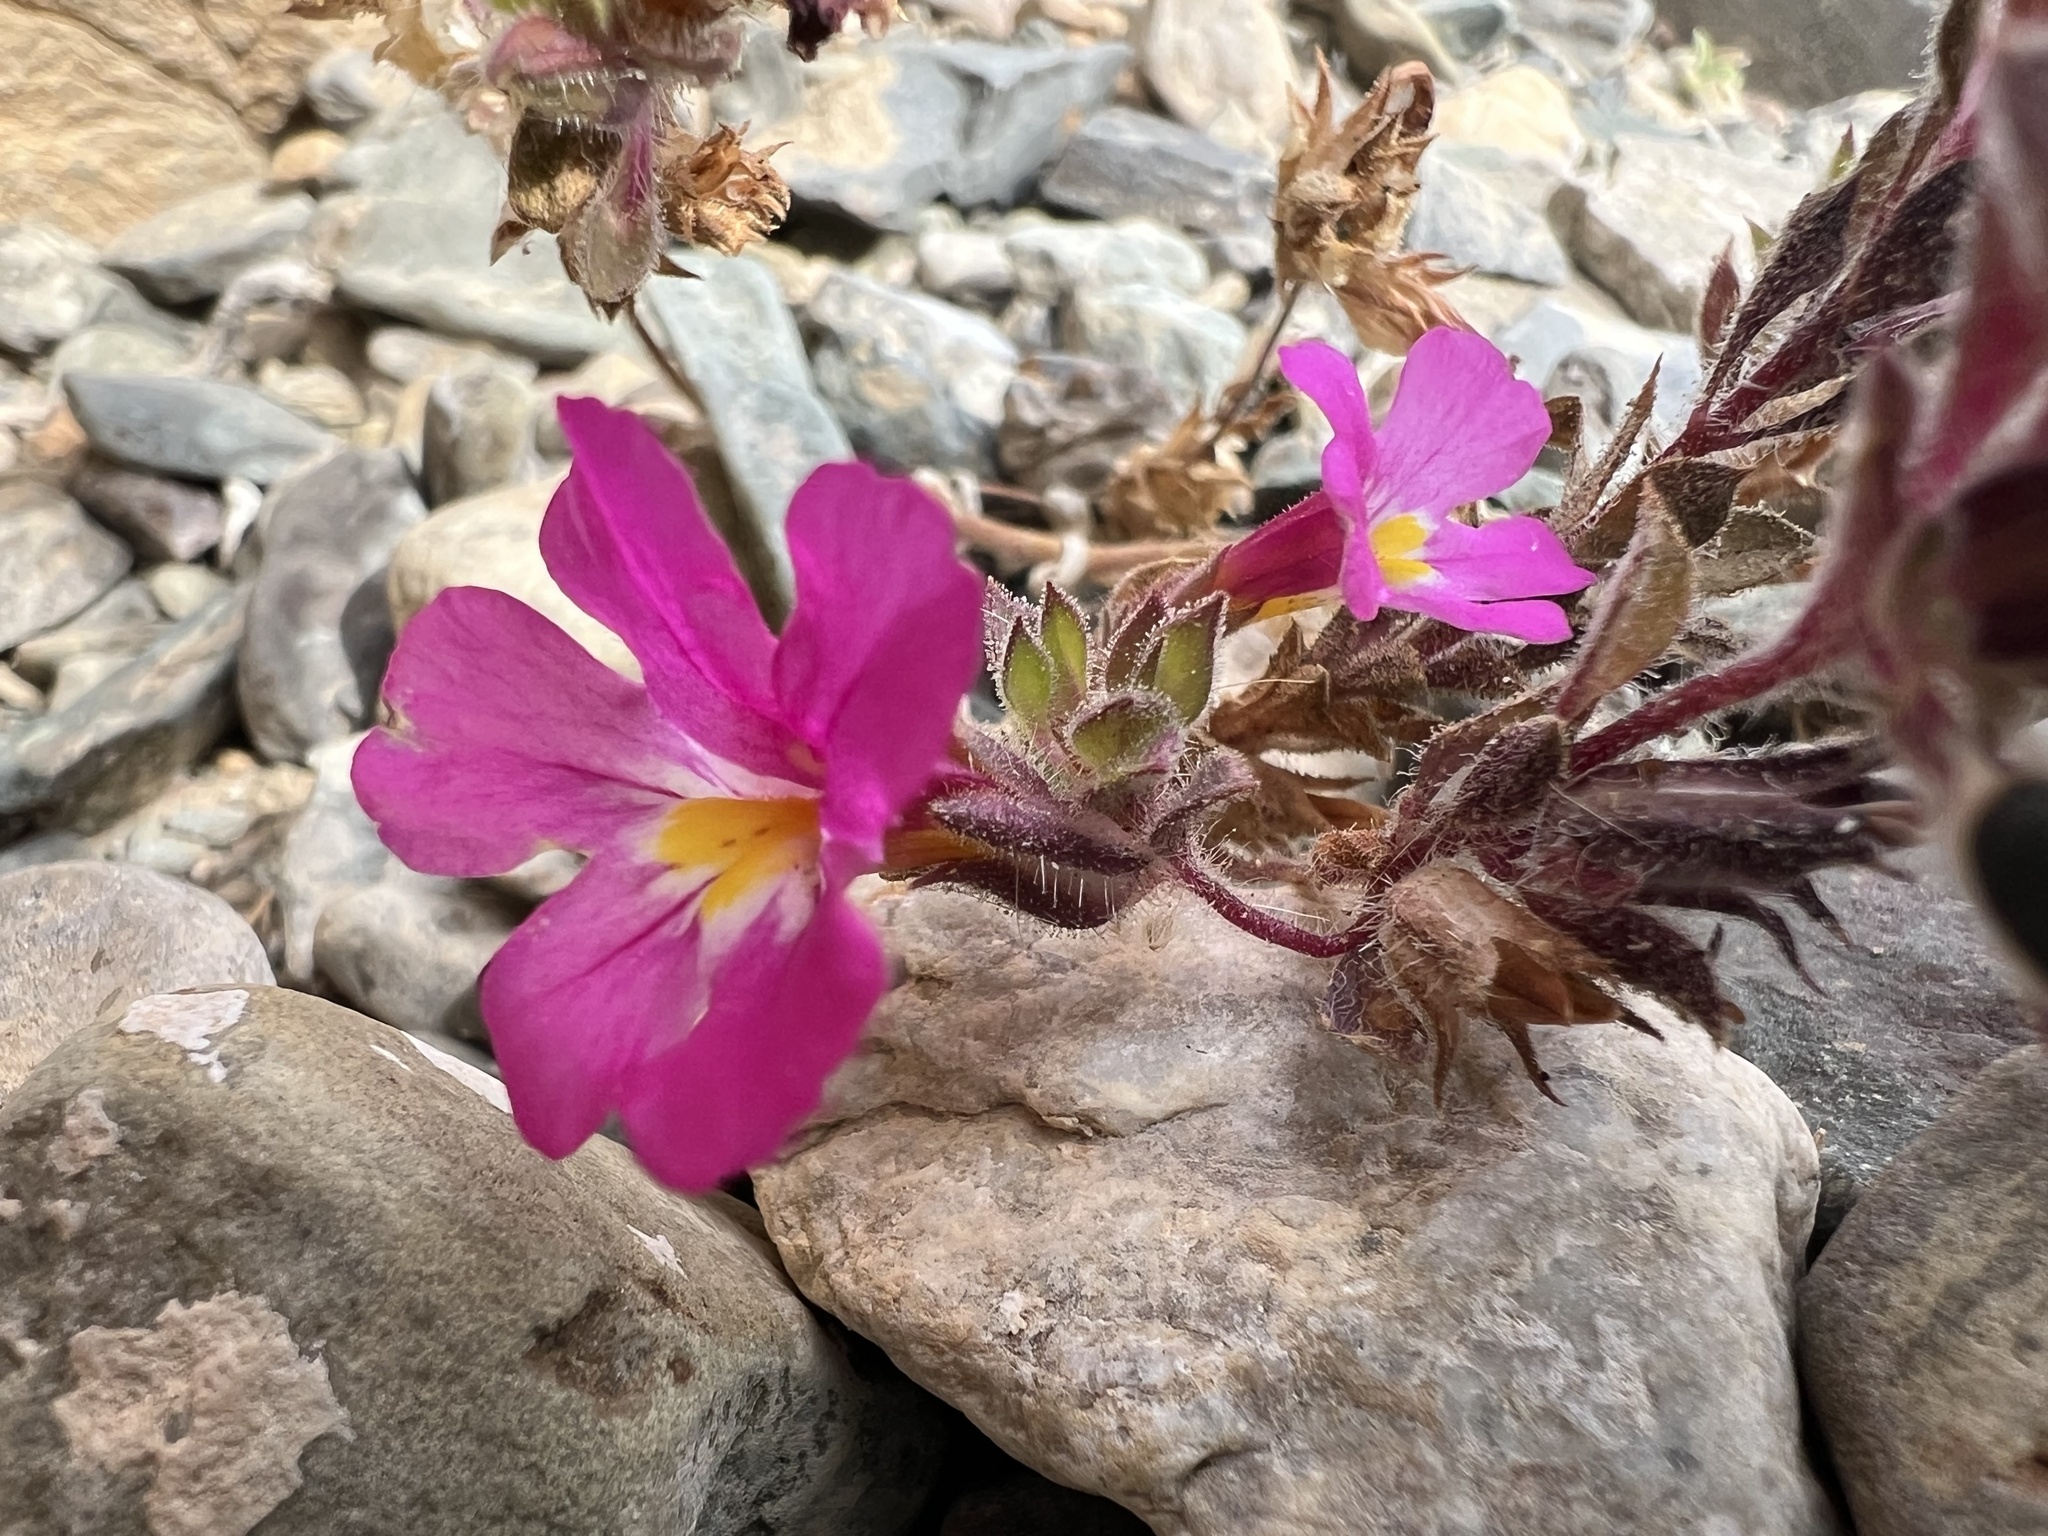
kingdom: Plantae
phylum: Tracheophyta
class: Magnoliopsida
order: Lamiales
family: Phrymaceae
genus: Diplacus
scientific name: Diplacus bigelovii
